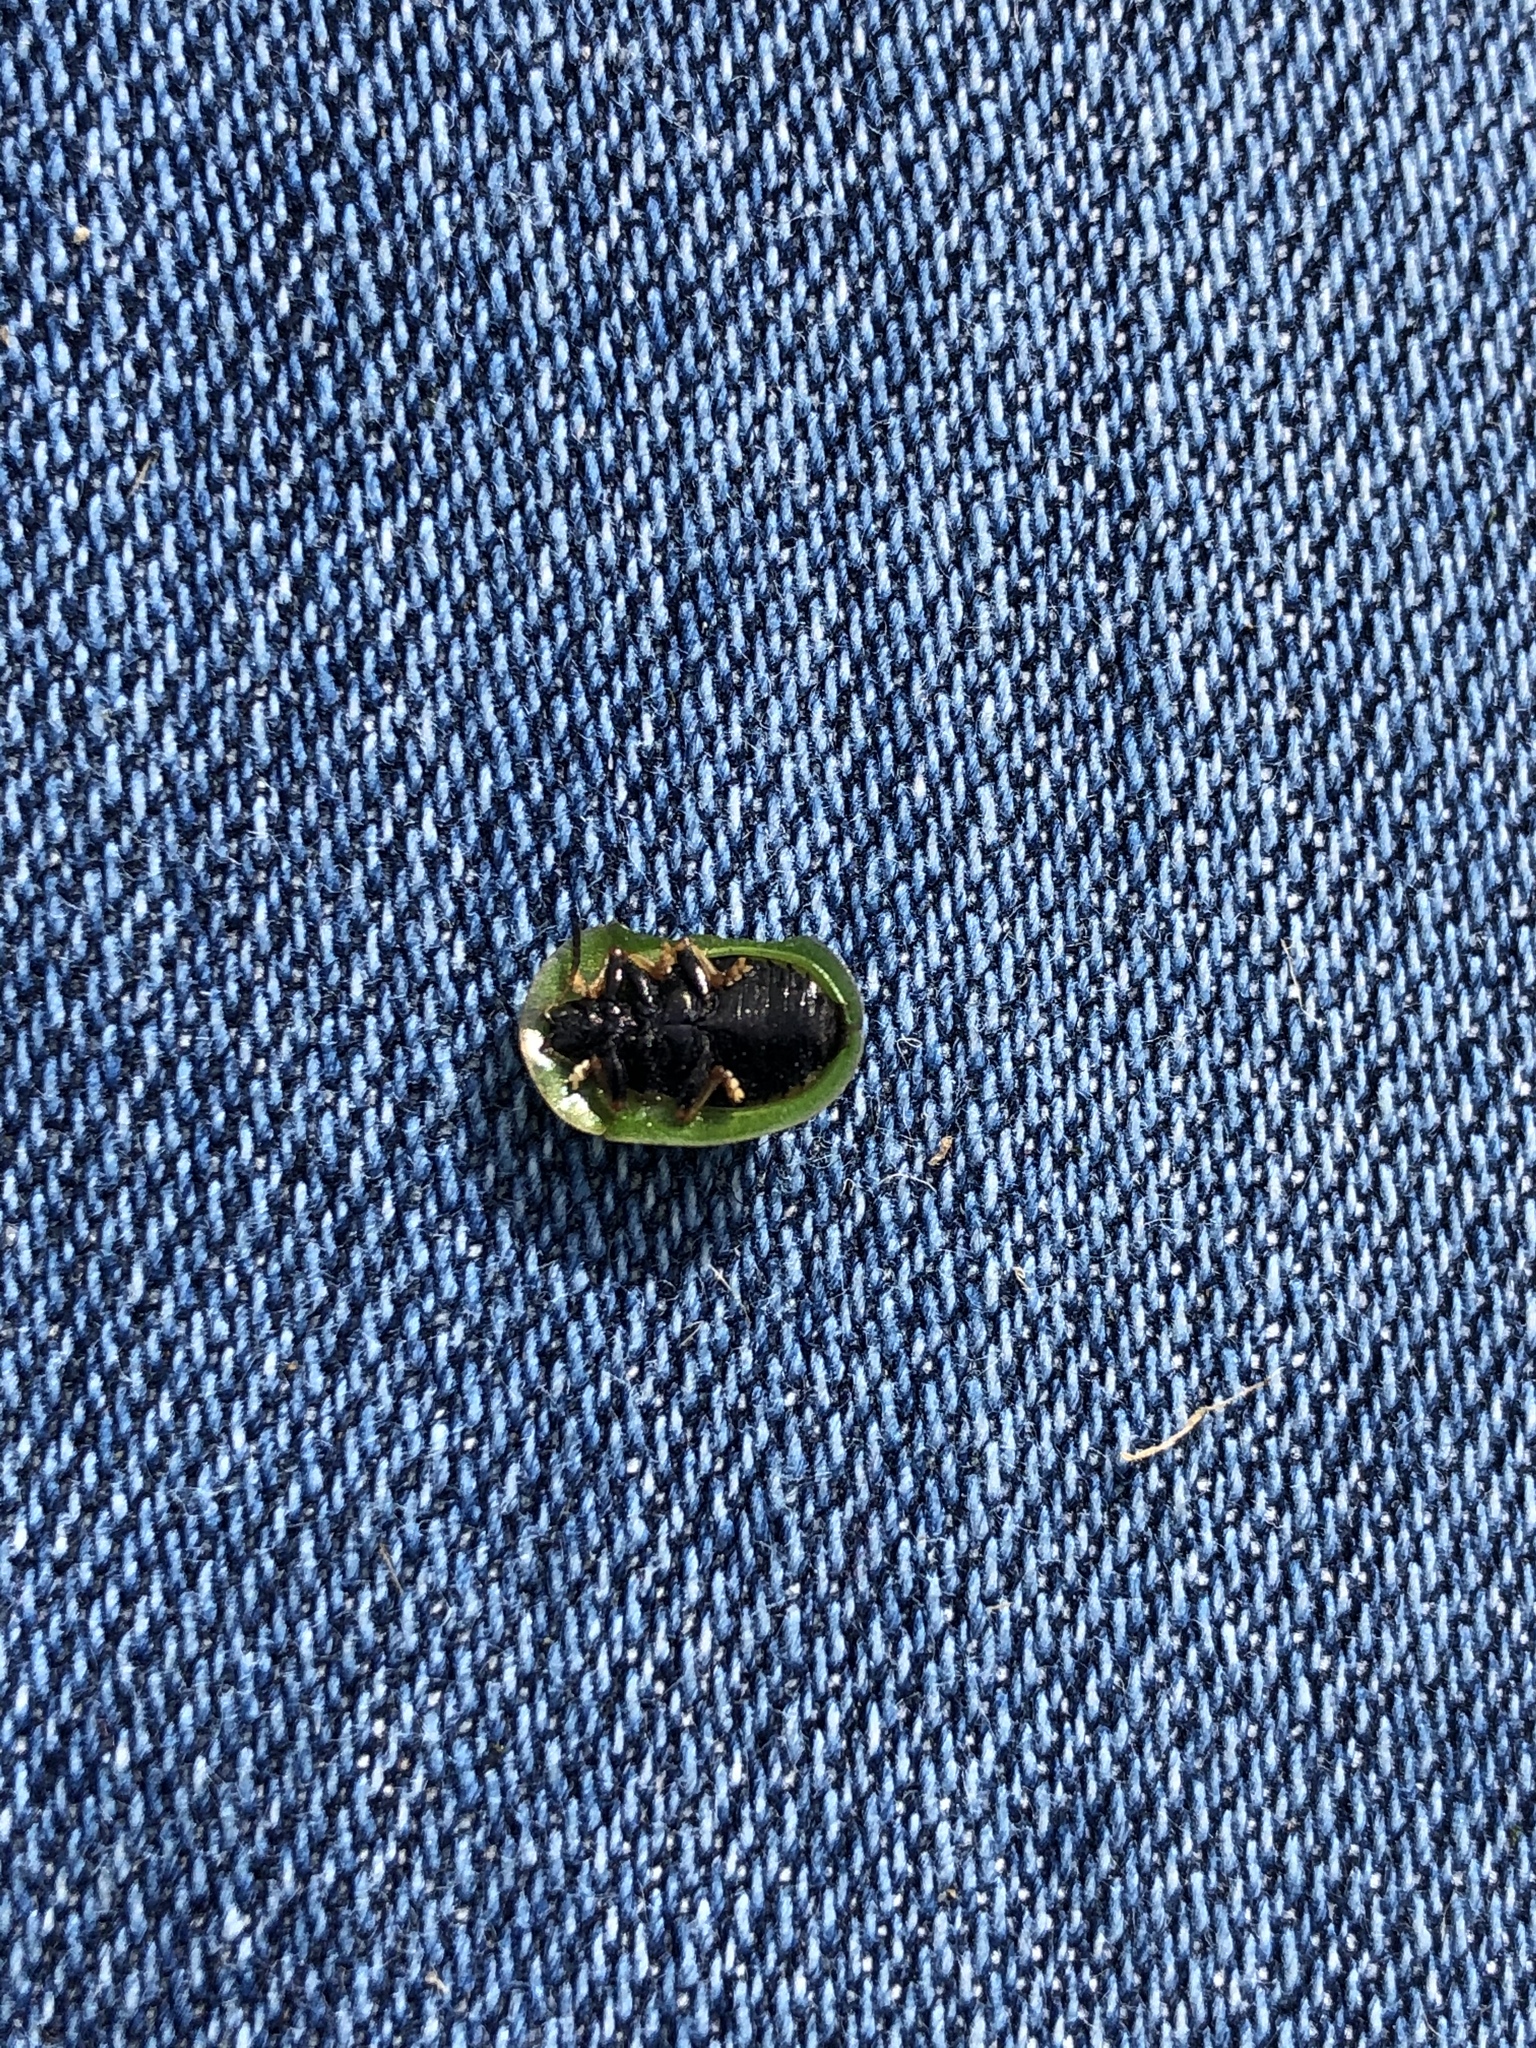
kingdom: Animalia
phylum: Arthropoda
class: Insecta
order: Coleoptera
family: Chrysomelidae
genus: Cassida
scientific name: Cassida rubiginosa
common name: Thistle tortoise beetle
